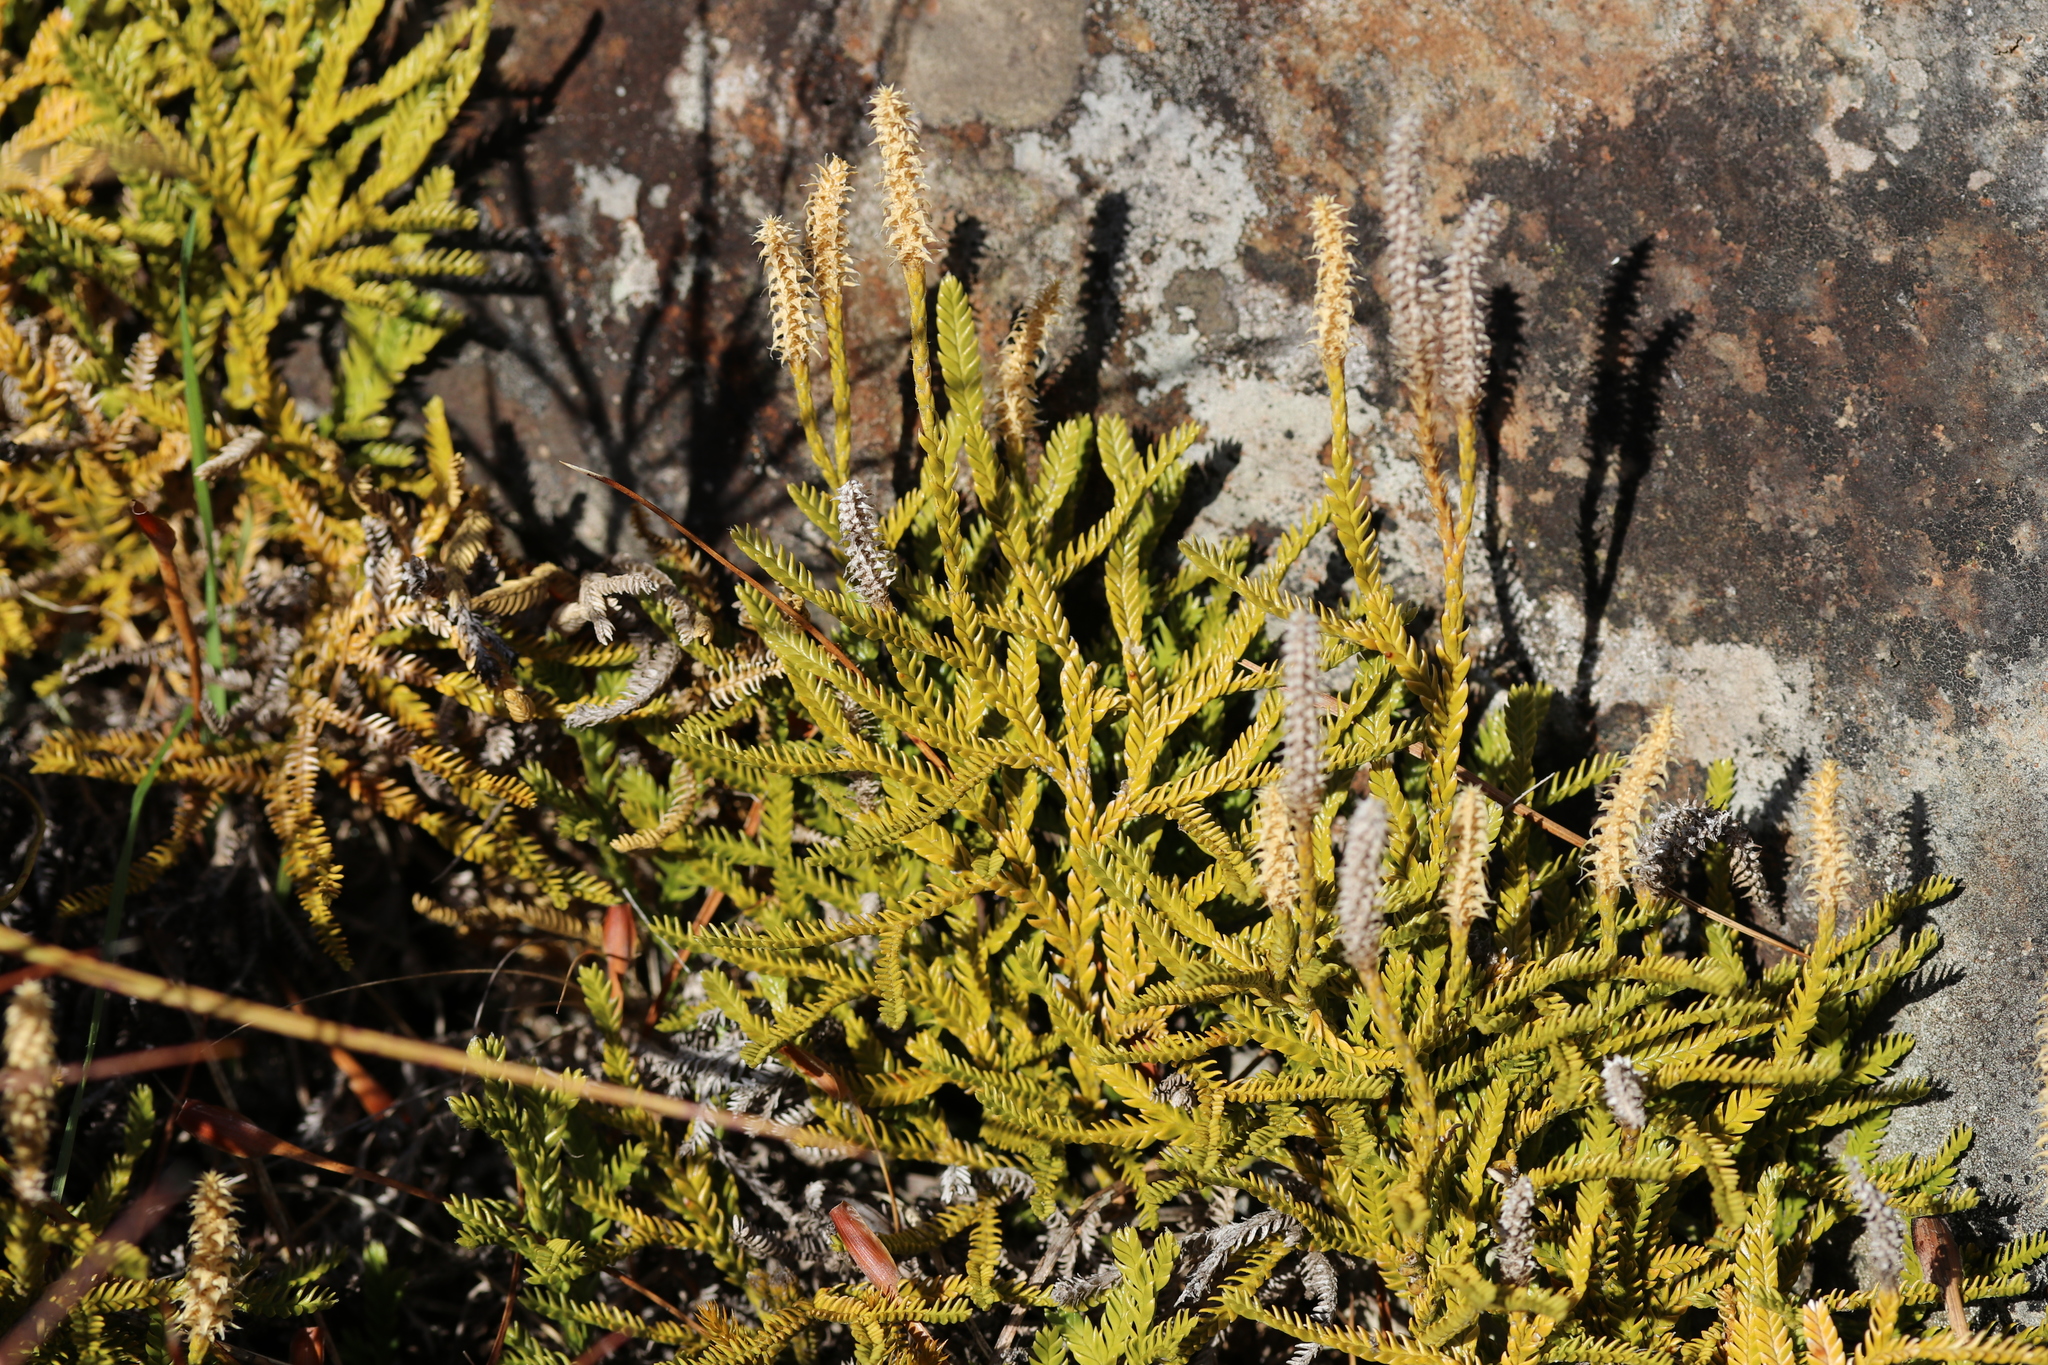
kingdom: Plantae
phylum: Tracheophyta
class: Lycopodiopsida
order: Lycopodiales
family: Lycopodiaceae
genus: Diphasium
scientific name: Diphasium scariosum
